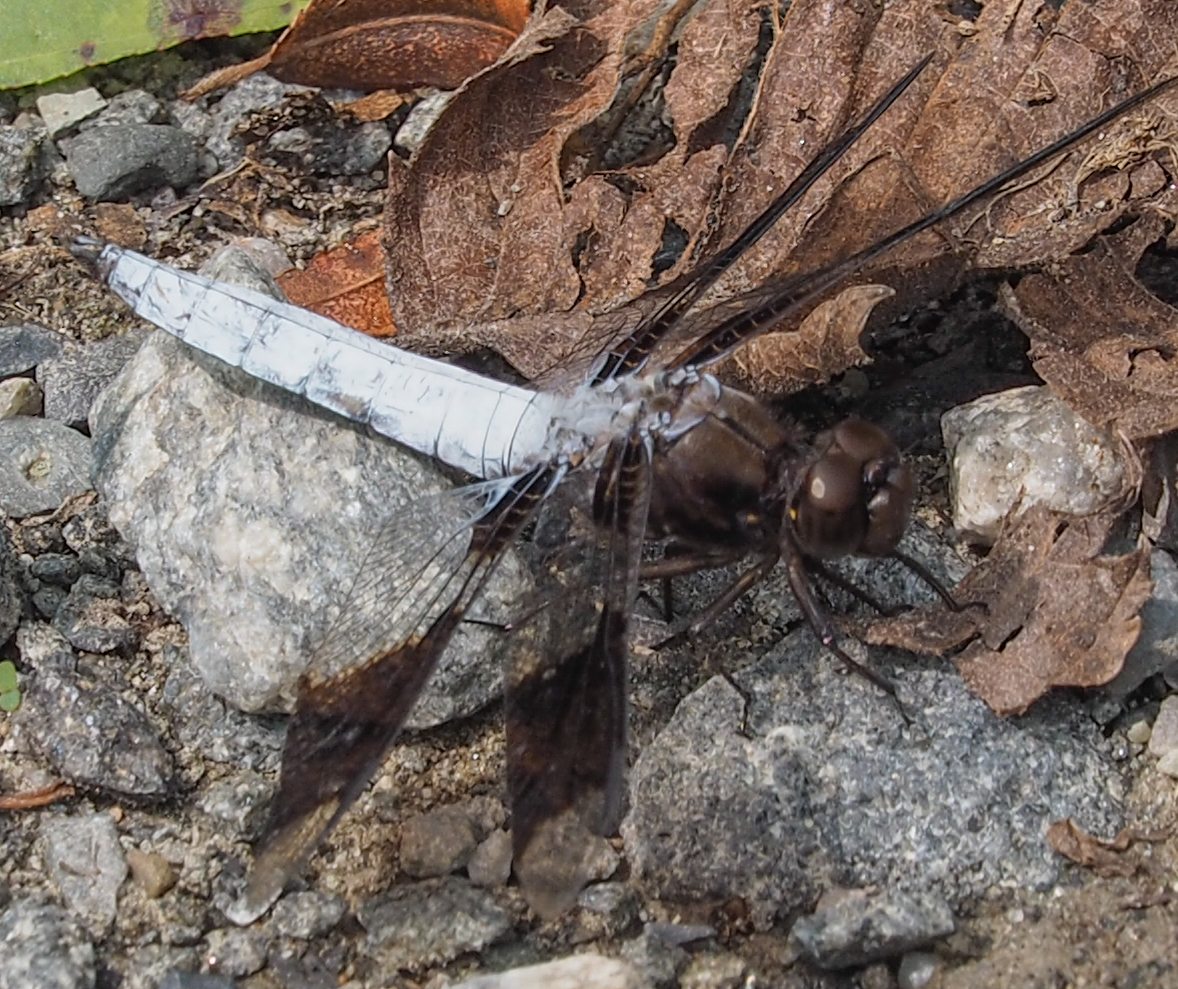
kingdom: Animalia
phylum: Arthropoda
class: Insecta
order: Odonata
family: Libellulidae
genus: Plathemis
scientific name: Plathemis lydia
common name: Common whitetail
